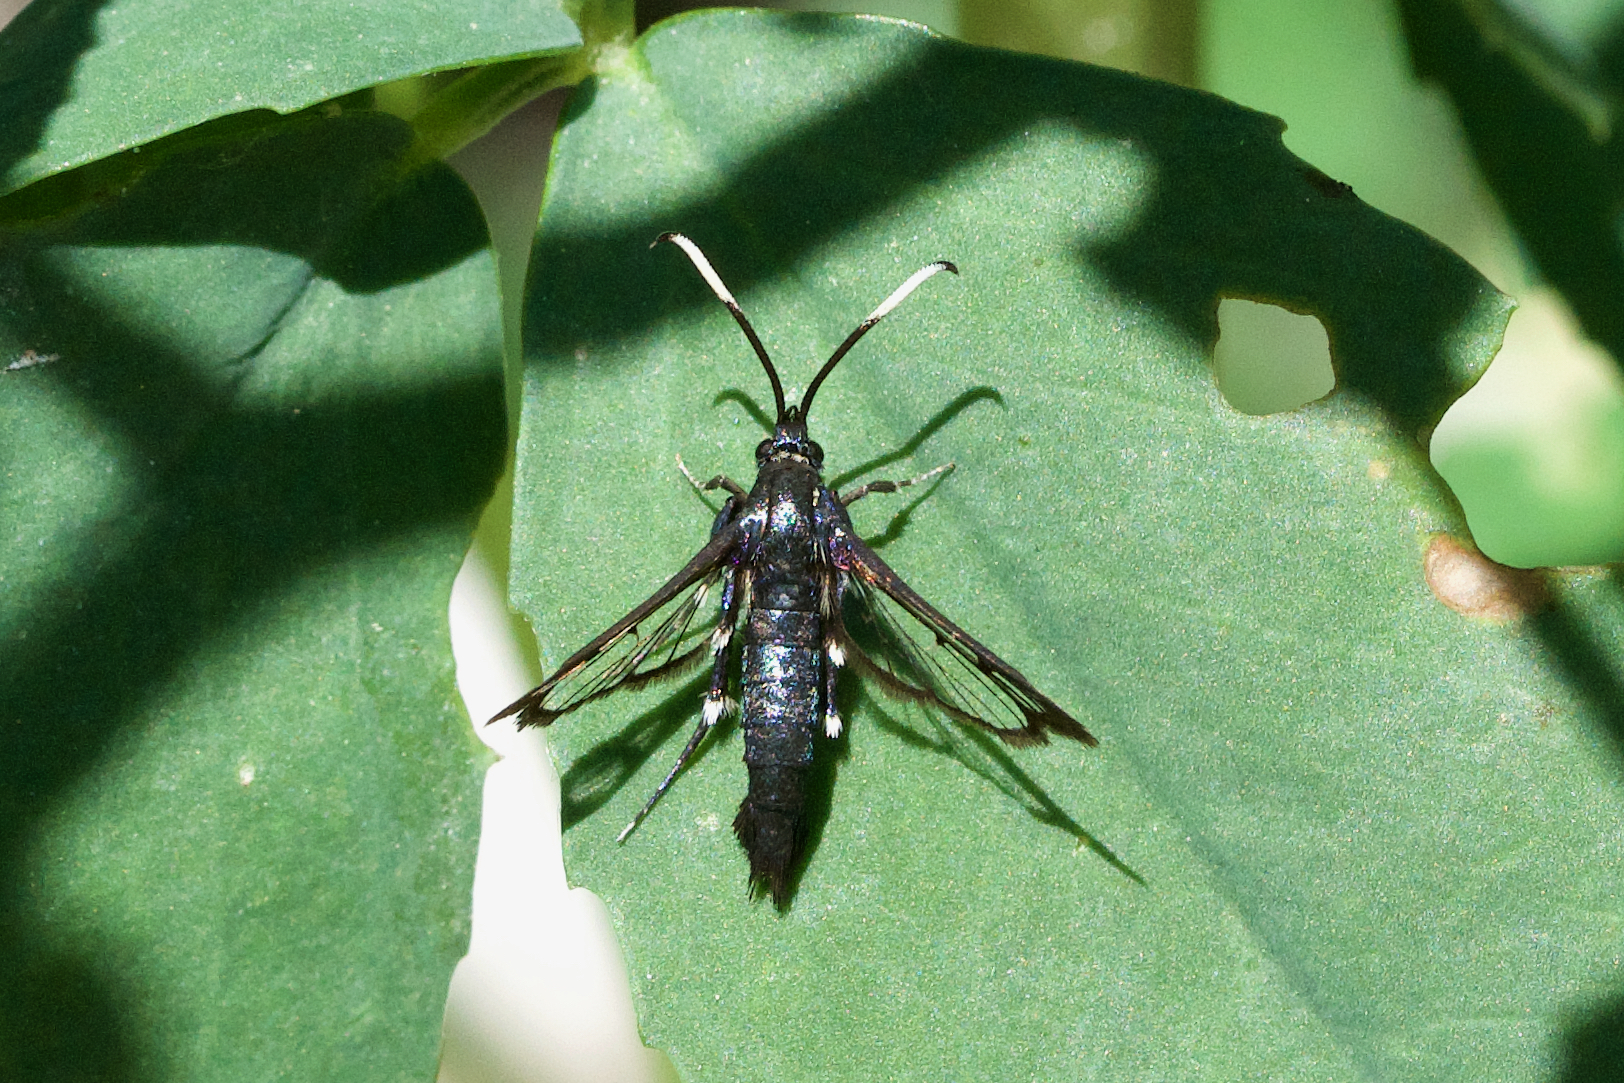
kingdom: Animalia
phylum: Arthropoda
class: Insecta
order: Lepidoptera
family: Sesiidae
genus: Synanthedon
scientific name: Synanthedon proxima
